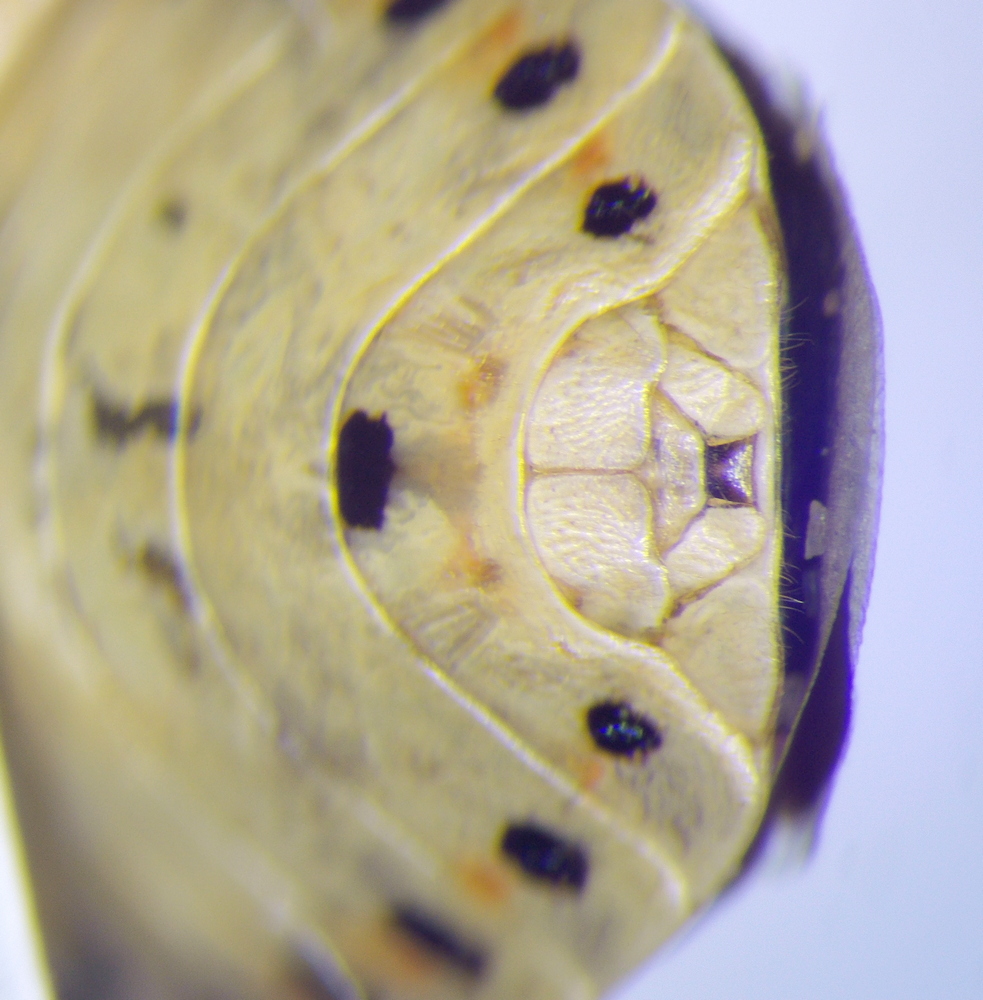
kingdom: Animalia
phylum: Arthropoda
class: Insecta
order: Hemiptera
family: Pentatomidae
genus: Eurydema
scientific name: Eurydema ornata
